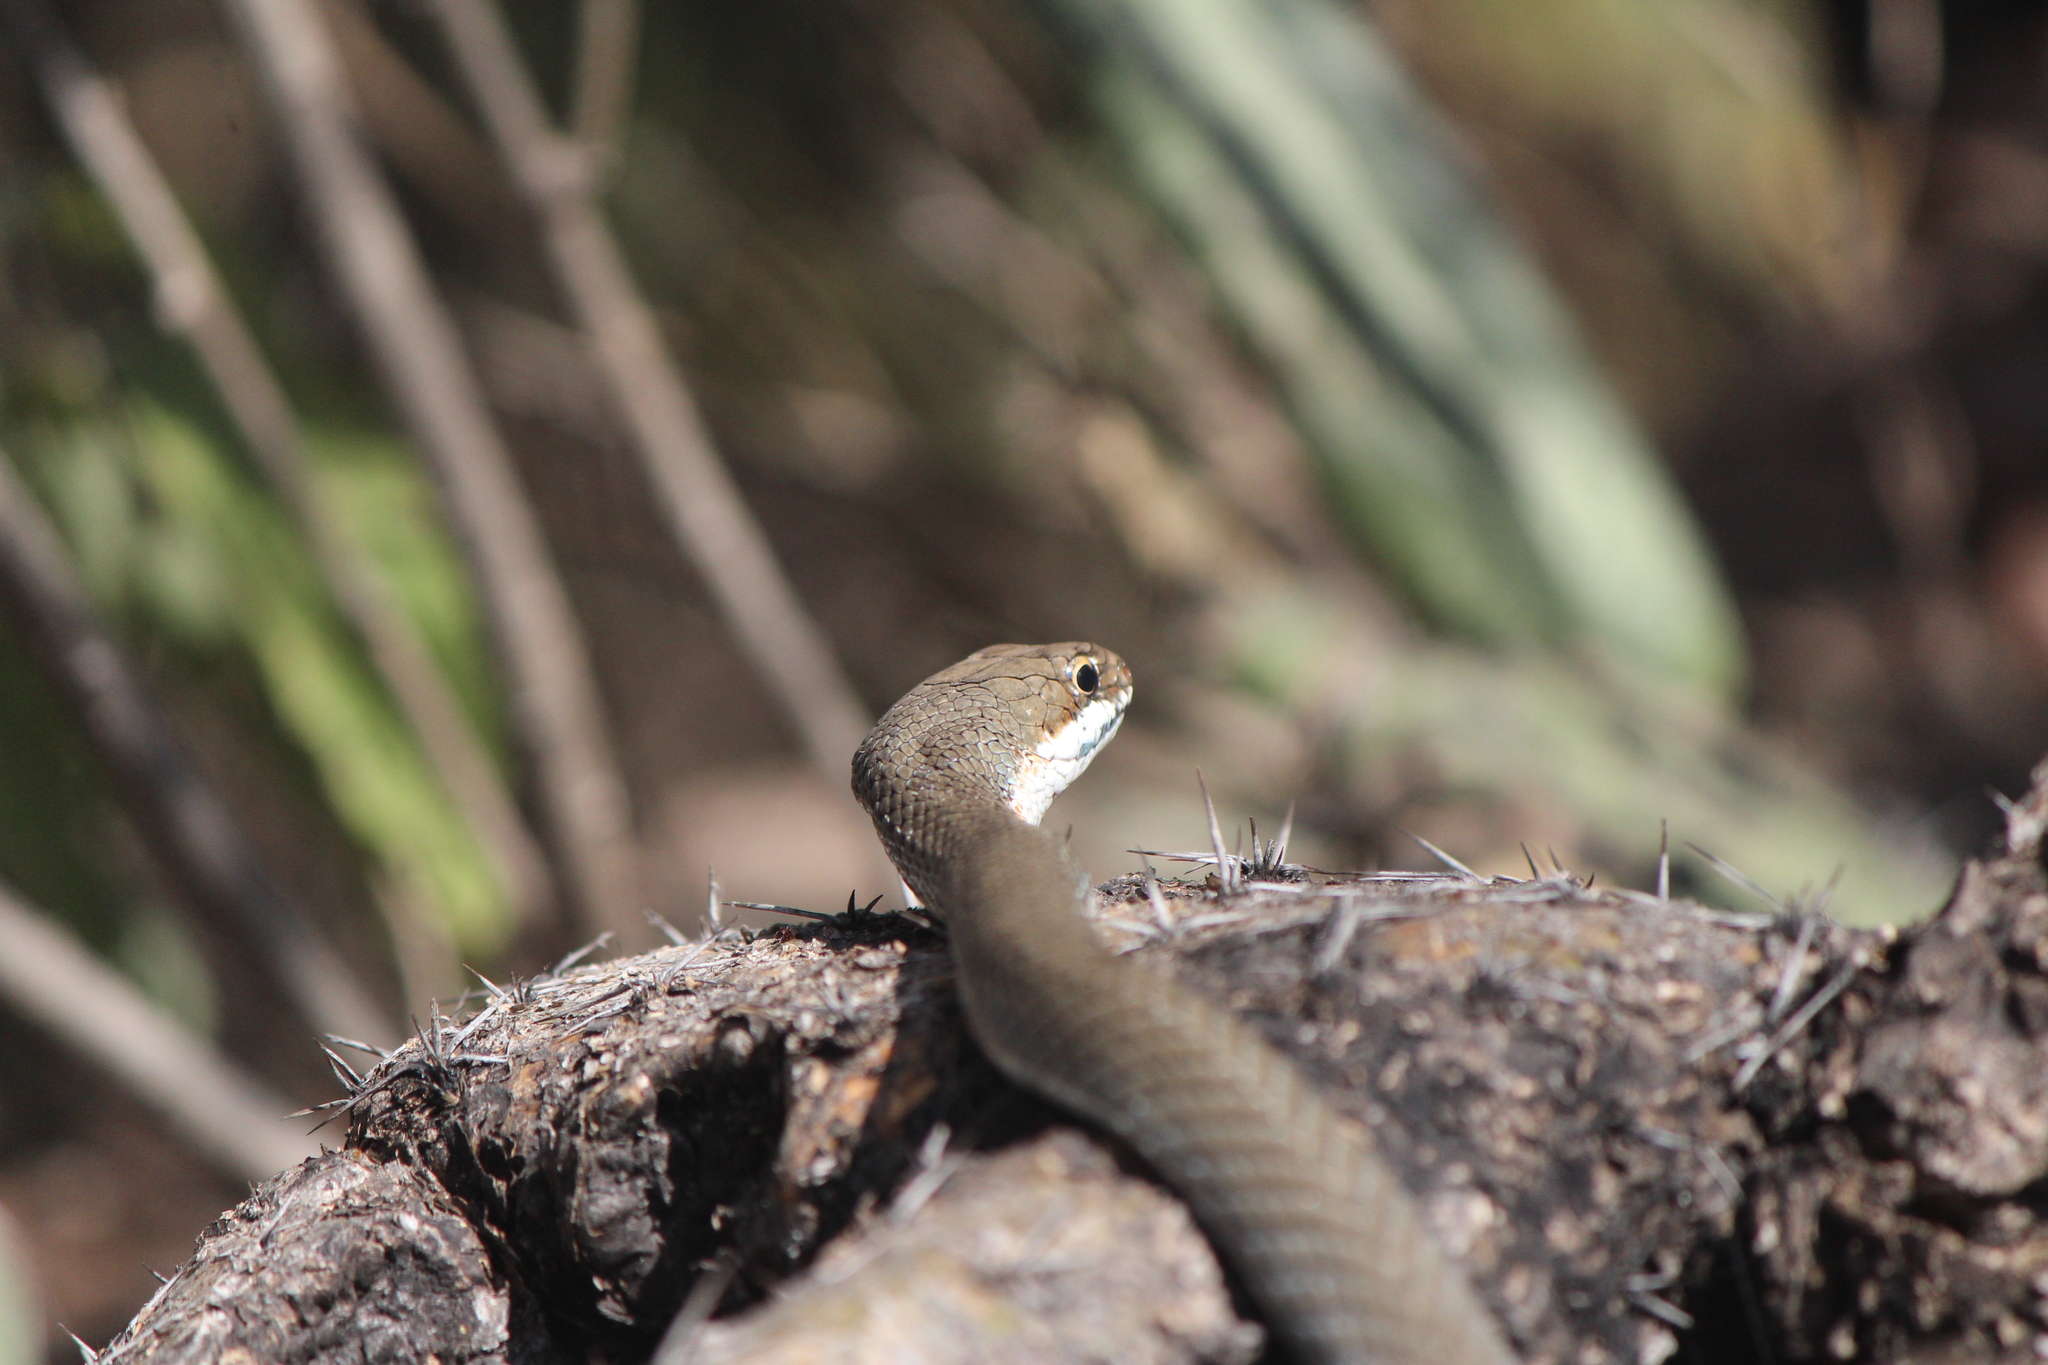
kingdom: Animalia
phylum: Chordata
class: Squamata
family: Colubridae
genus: Masticophis
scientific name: Masticophis schotti
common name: Schott's whipsnake
